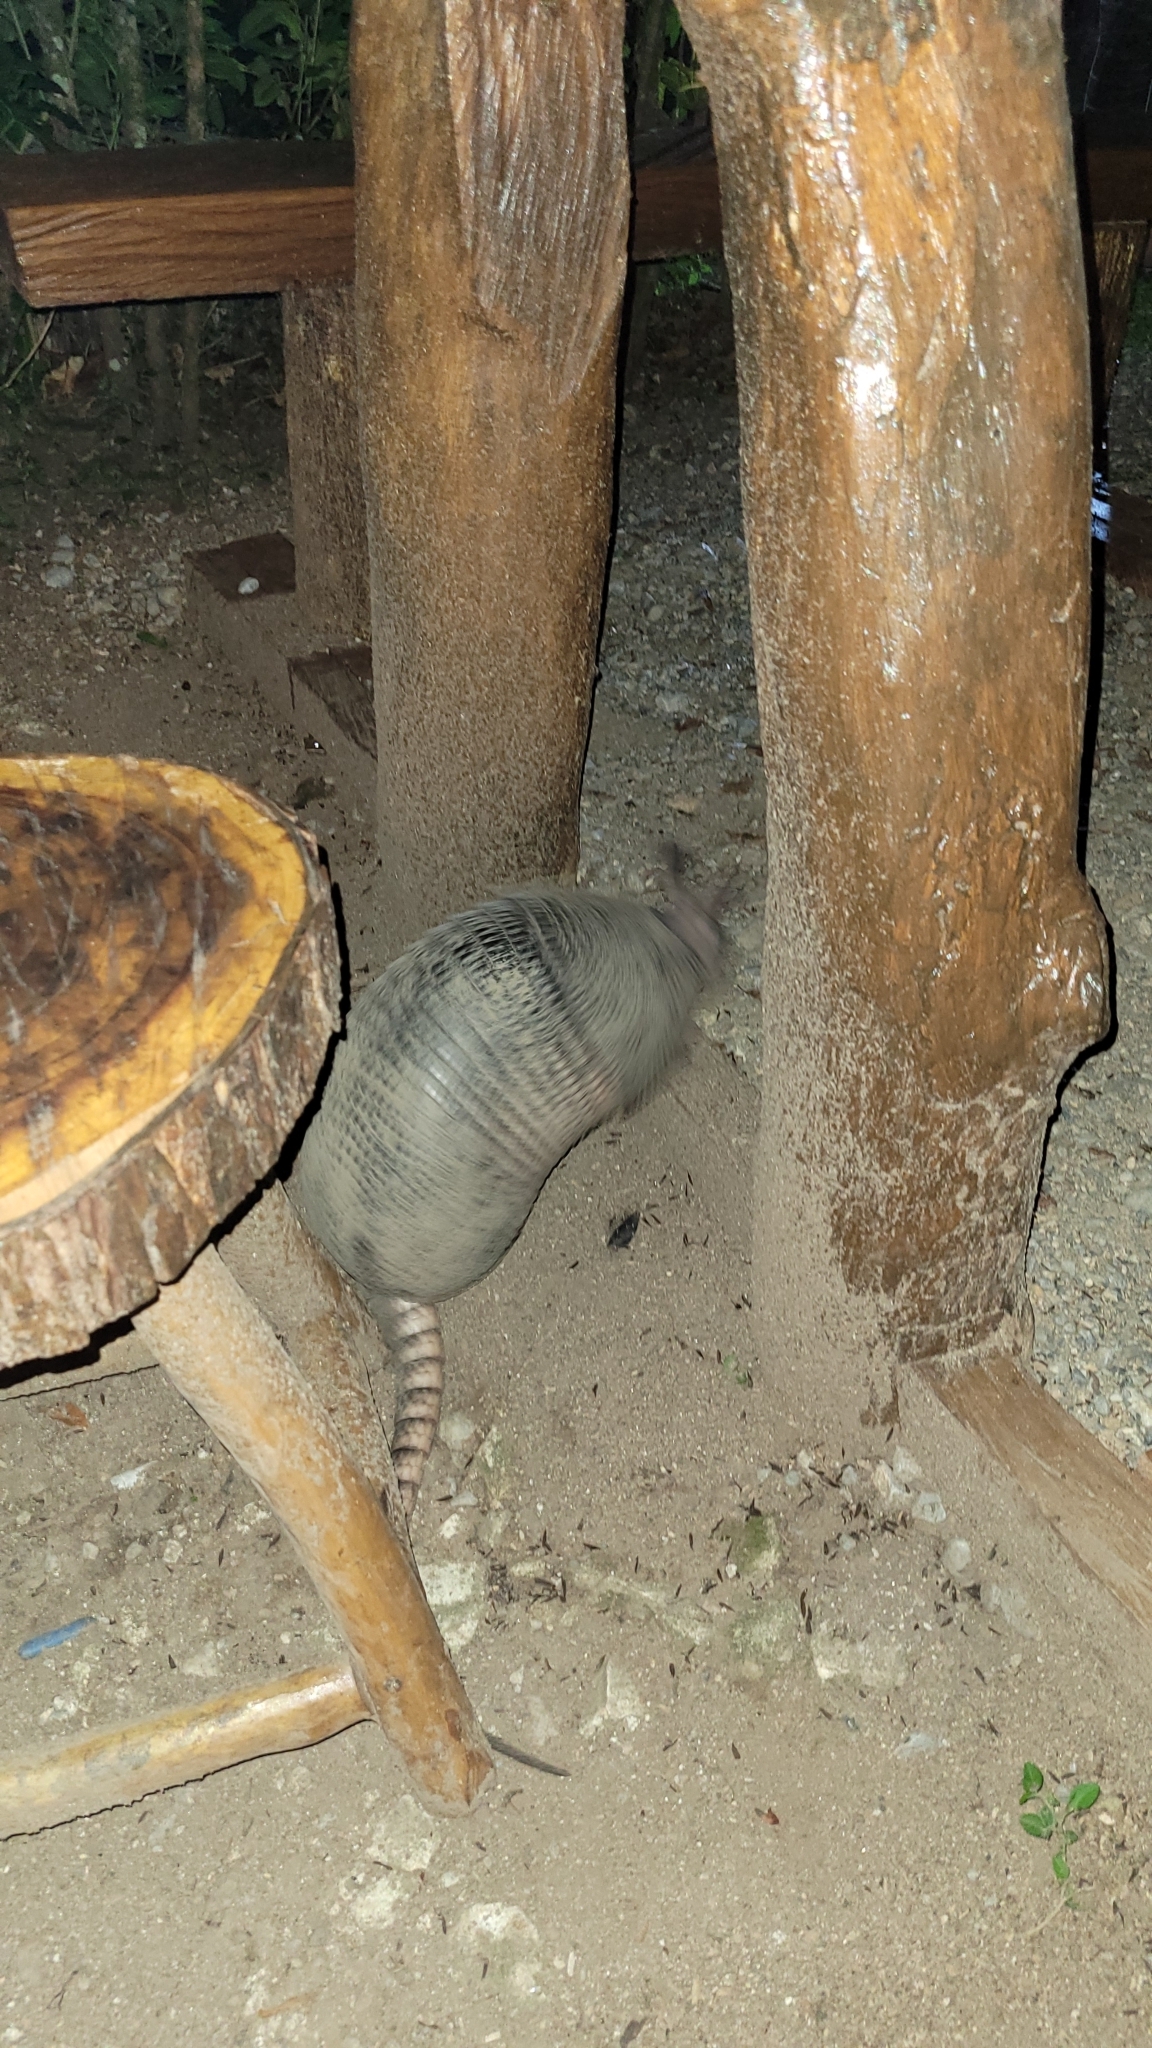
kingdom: Animalia
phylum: Chordata
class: Mammalia
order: Cingulata
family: Dasypodidae
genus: Dasypus
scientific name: Dasypus novemcinctus
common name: Nine-banded armadillo
